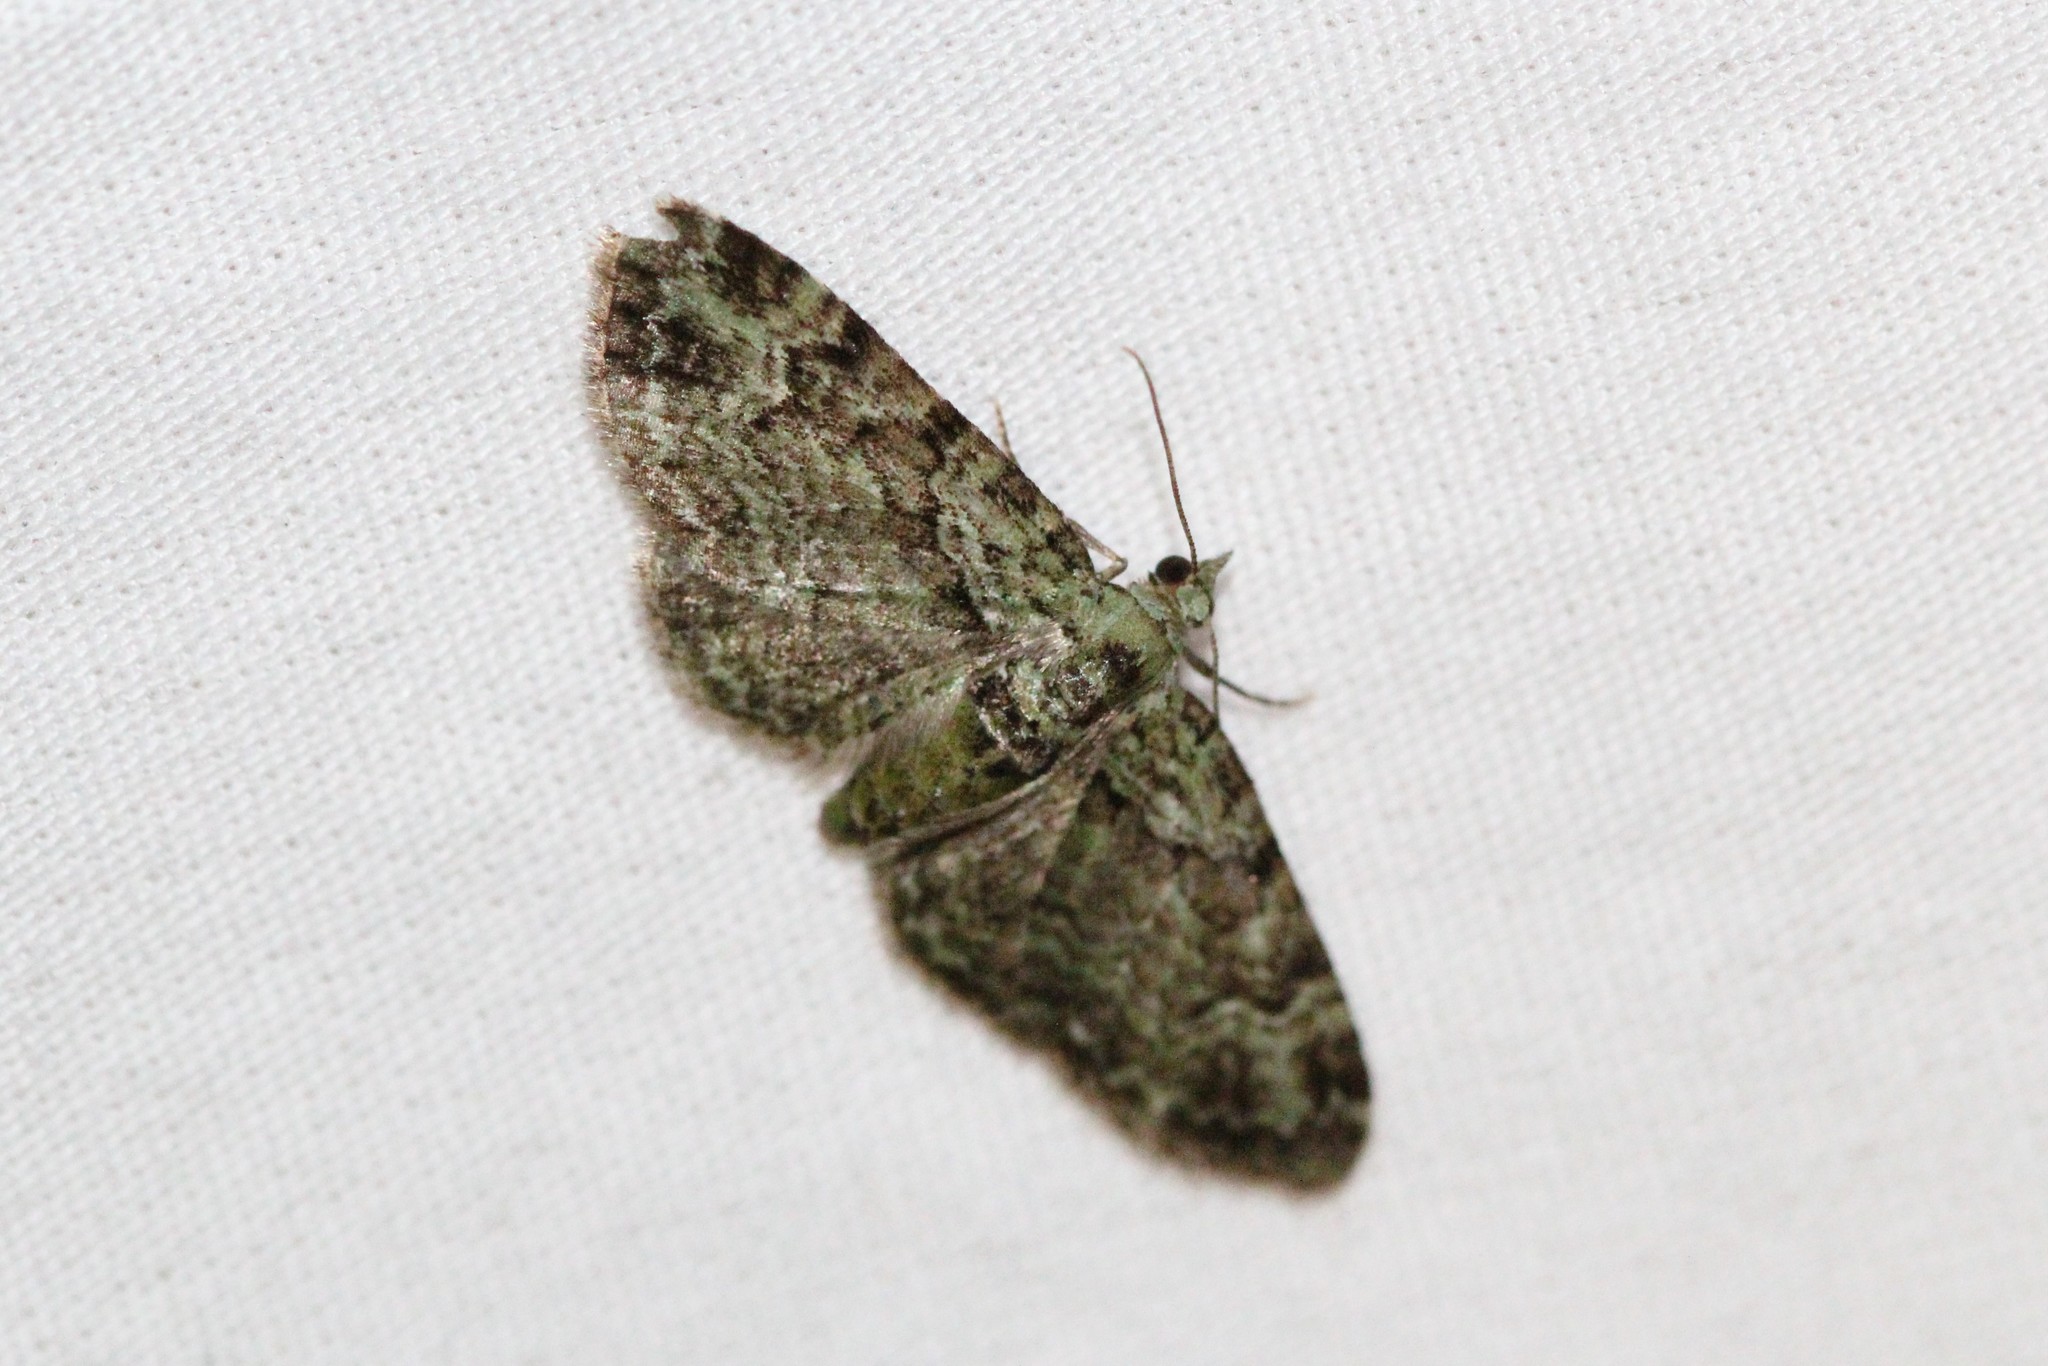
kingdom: Animalia
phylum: Arthropoda
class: Insecta
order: Lepidoptera
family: Geometridae
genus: Pasiphila
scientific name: Pasiphila rectangulata
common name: Green pug
